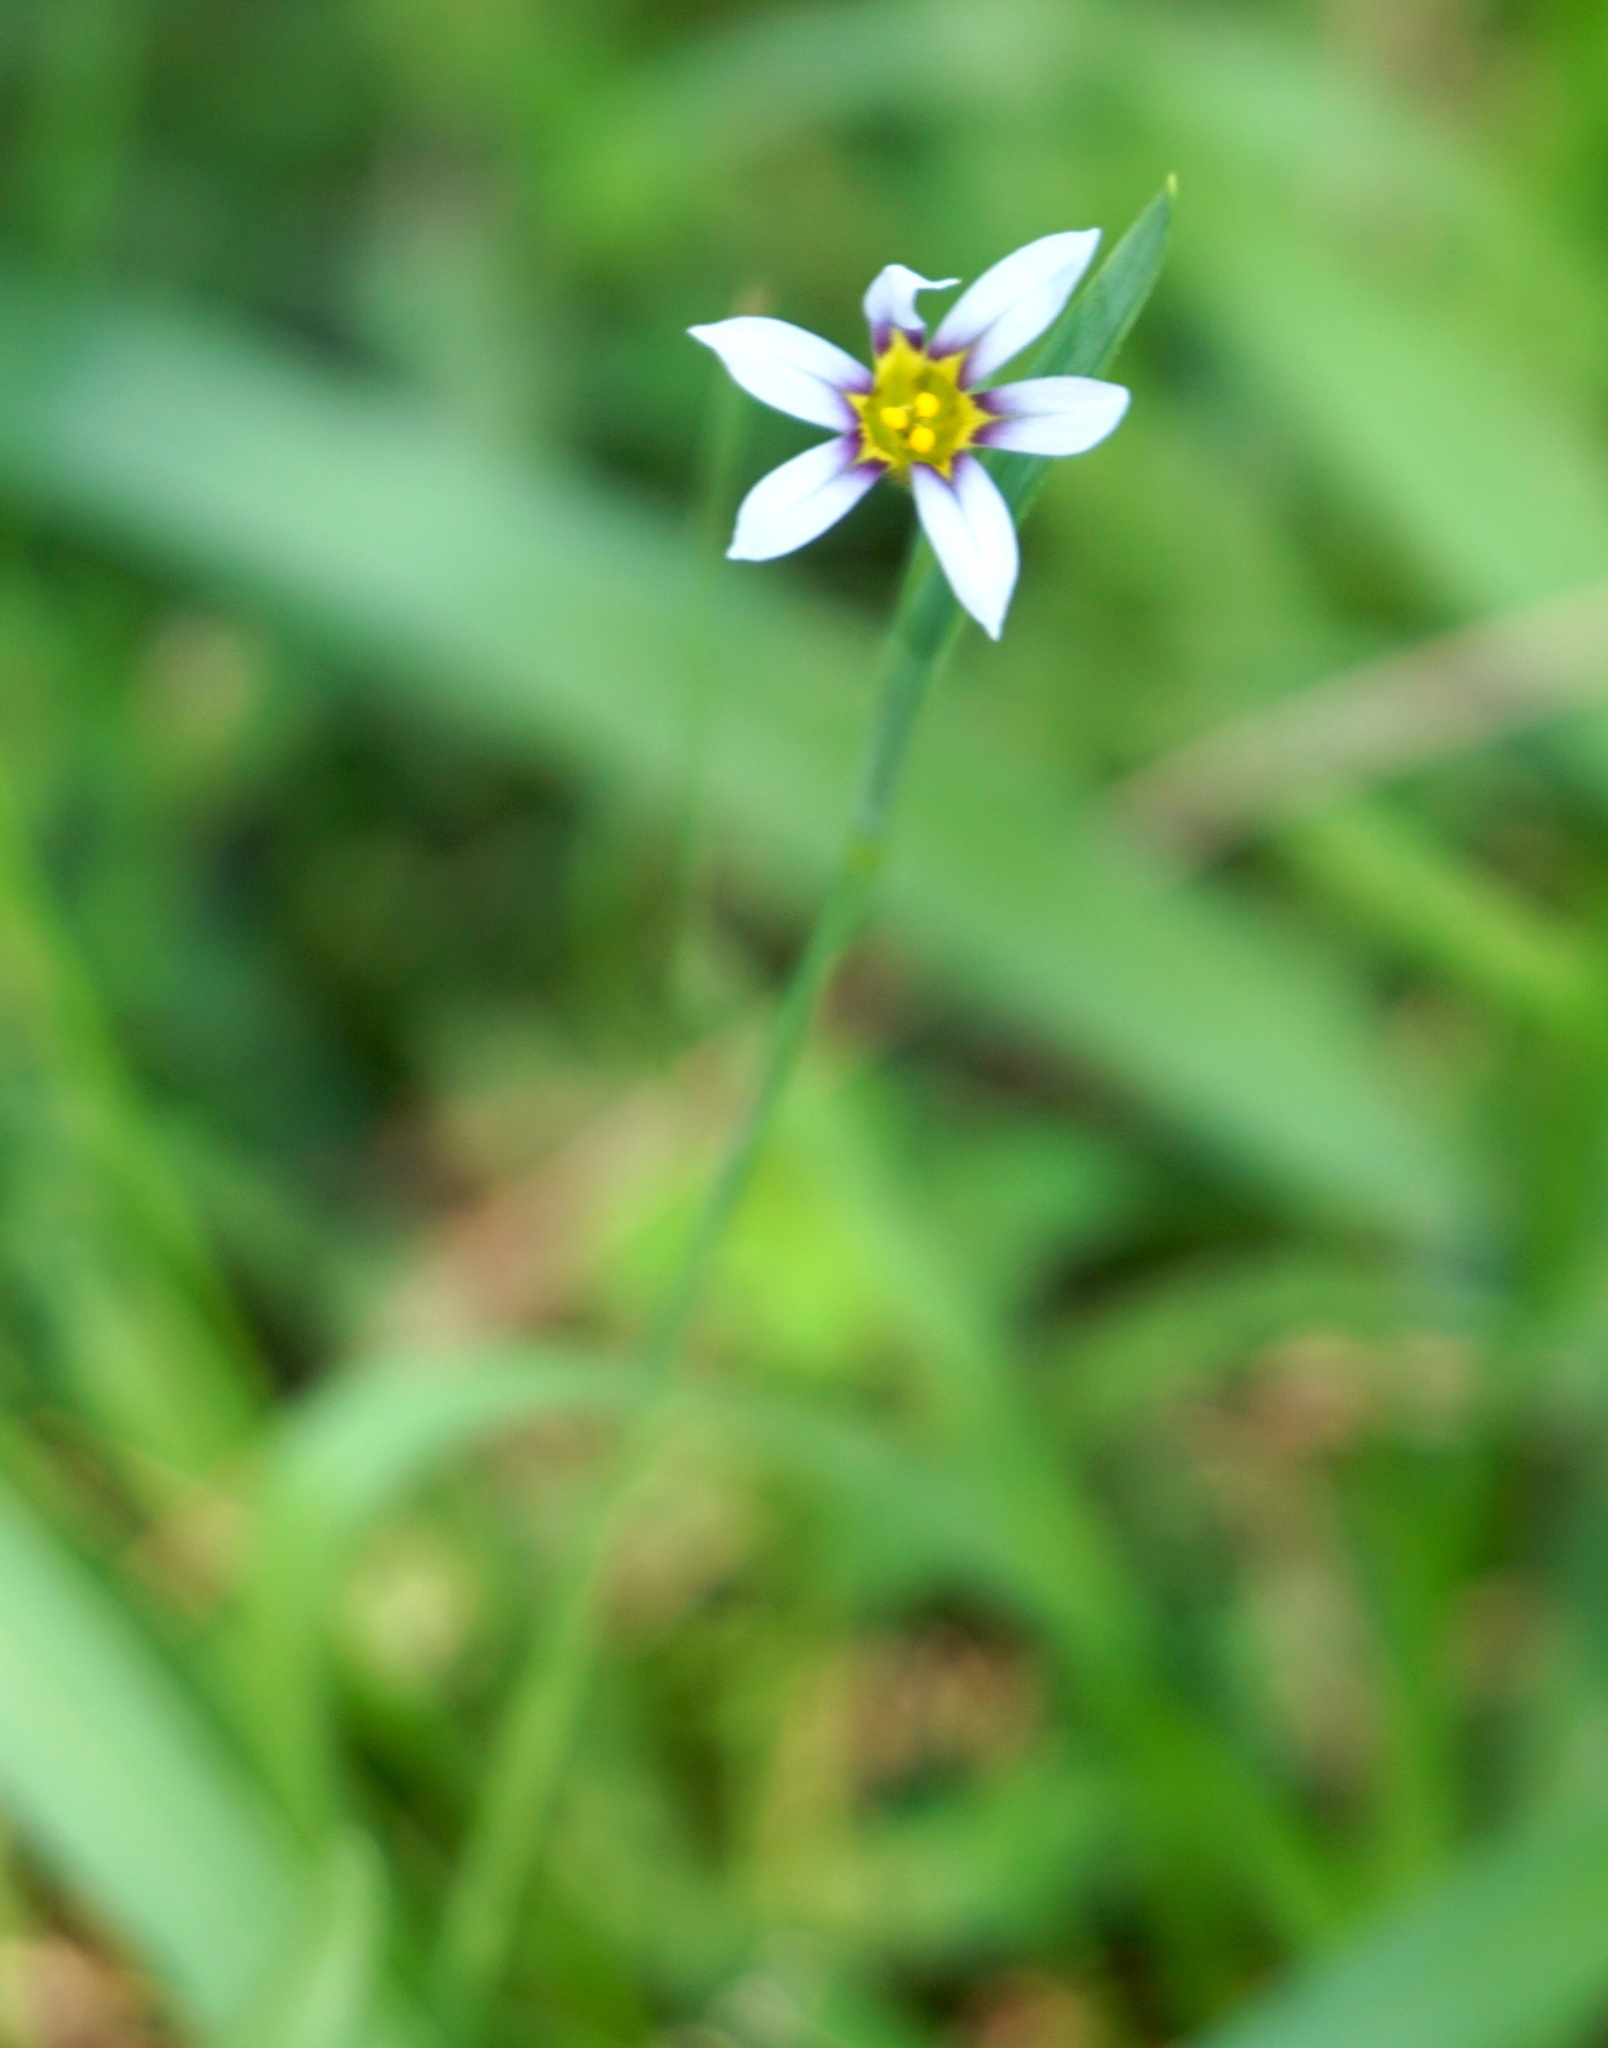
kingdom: Plantae
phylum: Tracheophyta
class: Liliopsida
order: Asparagales
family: Iridaceae
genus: Sisyrinchium
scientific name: Sisyrinchium micranthum
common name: Bermuda pigroot
